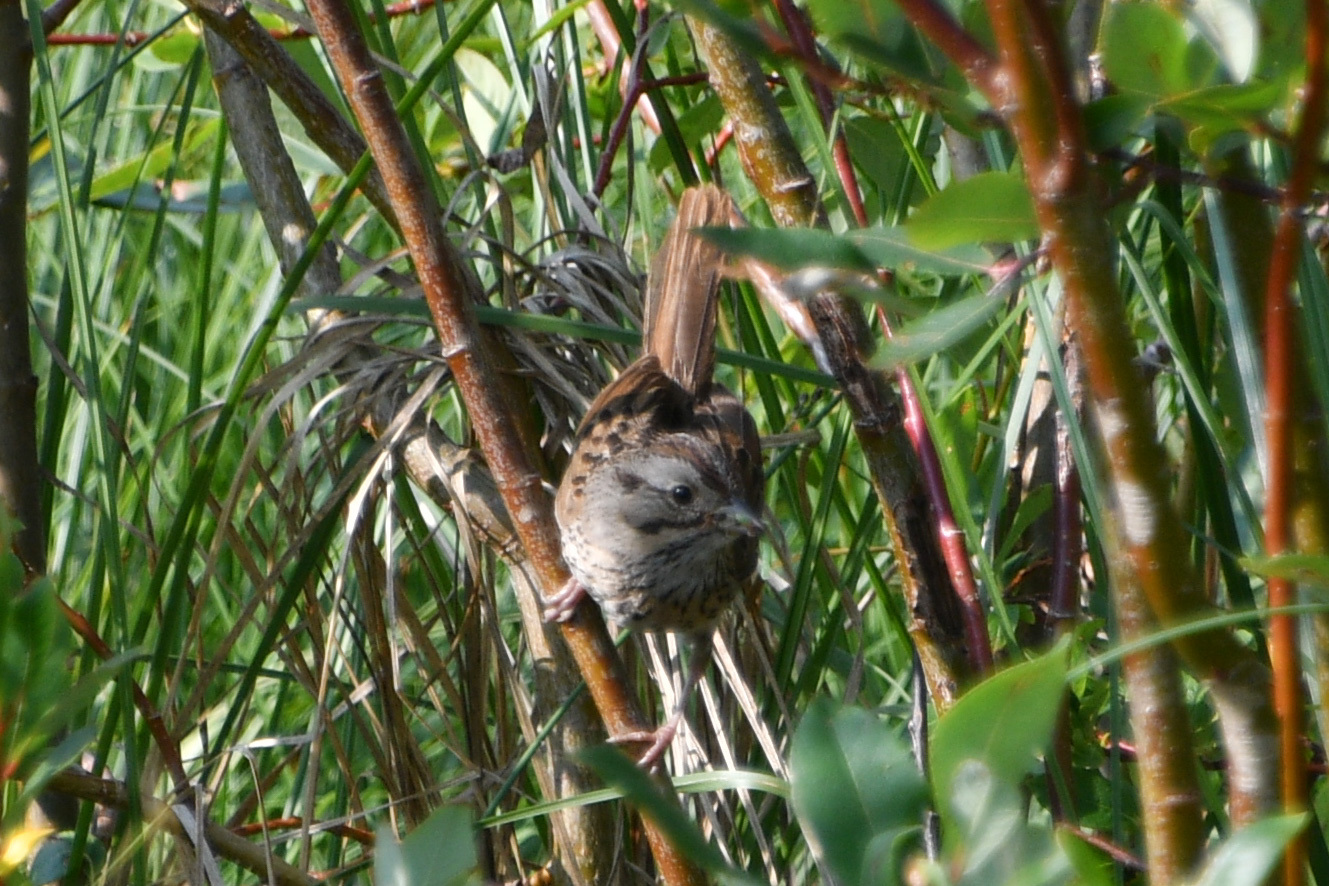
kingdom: Animalia
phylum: Chordata
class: Aves
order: Passeriformes
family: Passerellidae
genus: Melospiza
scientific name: Melospiza lincolnii
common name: Lincoln's sparrow
